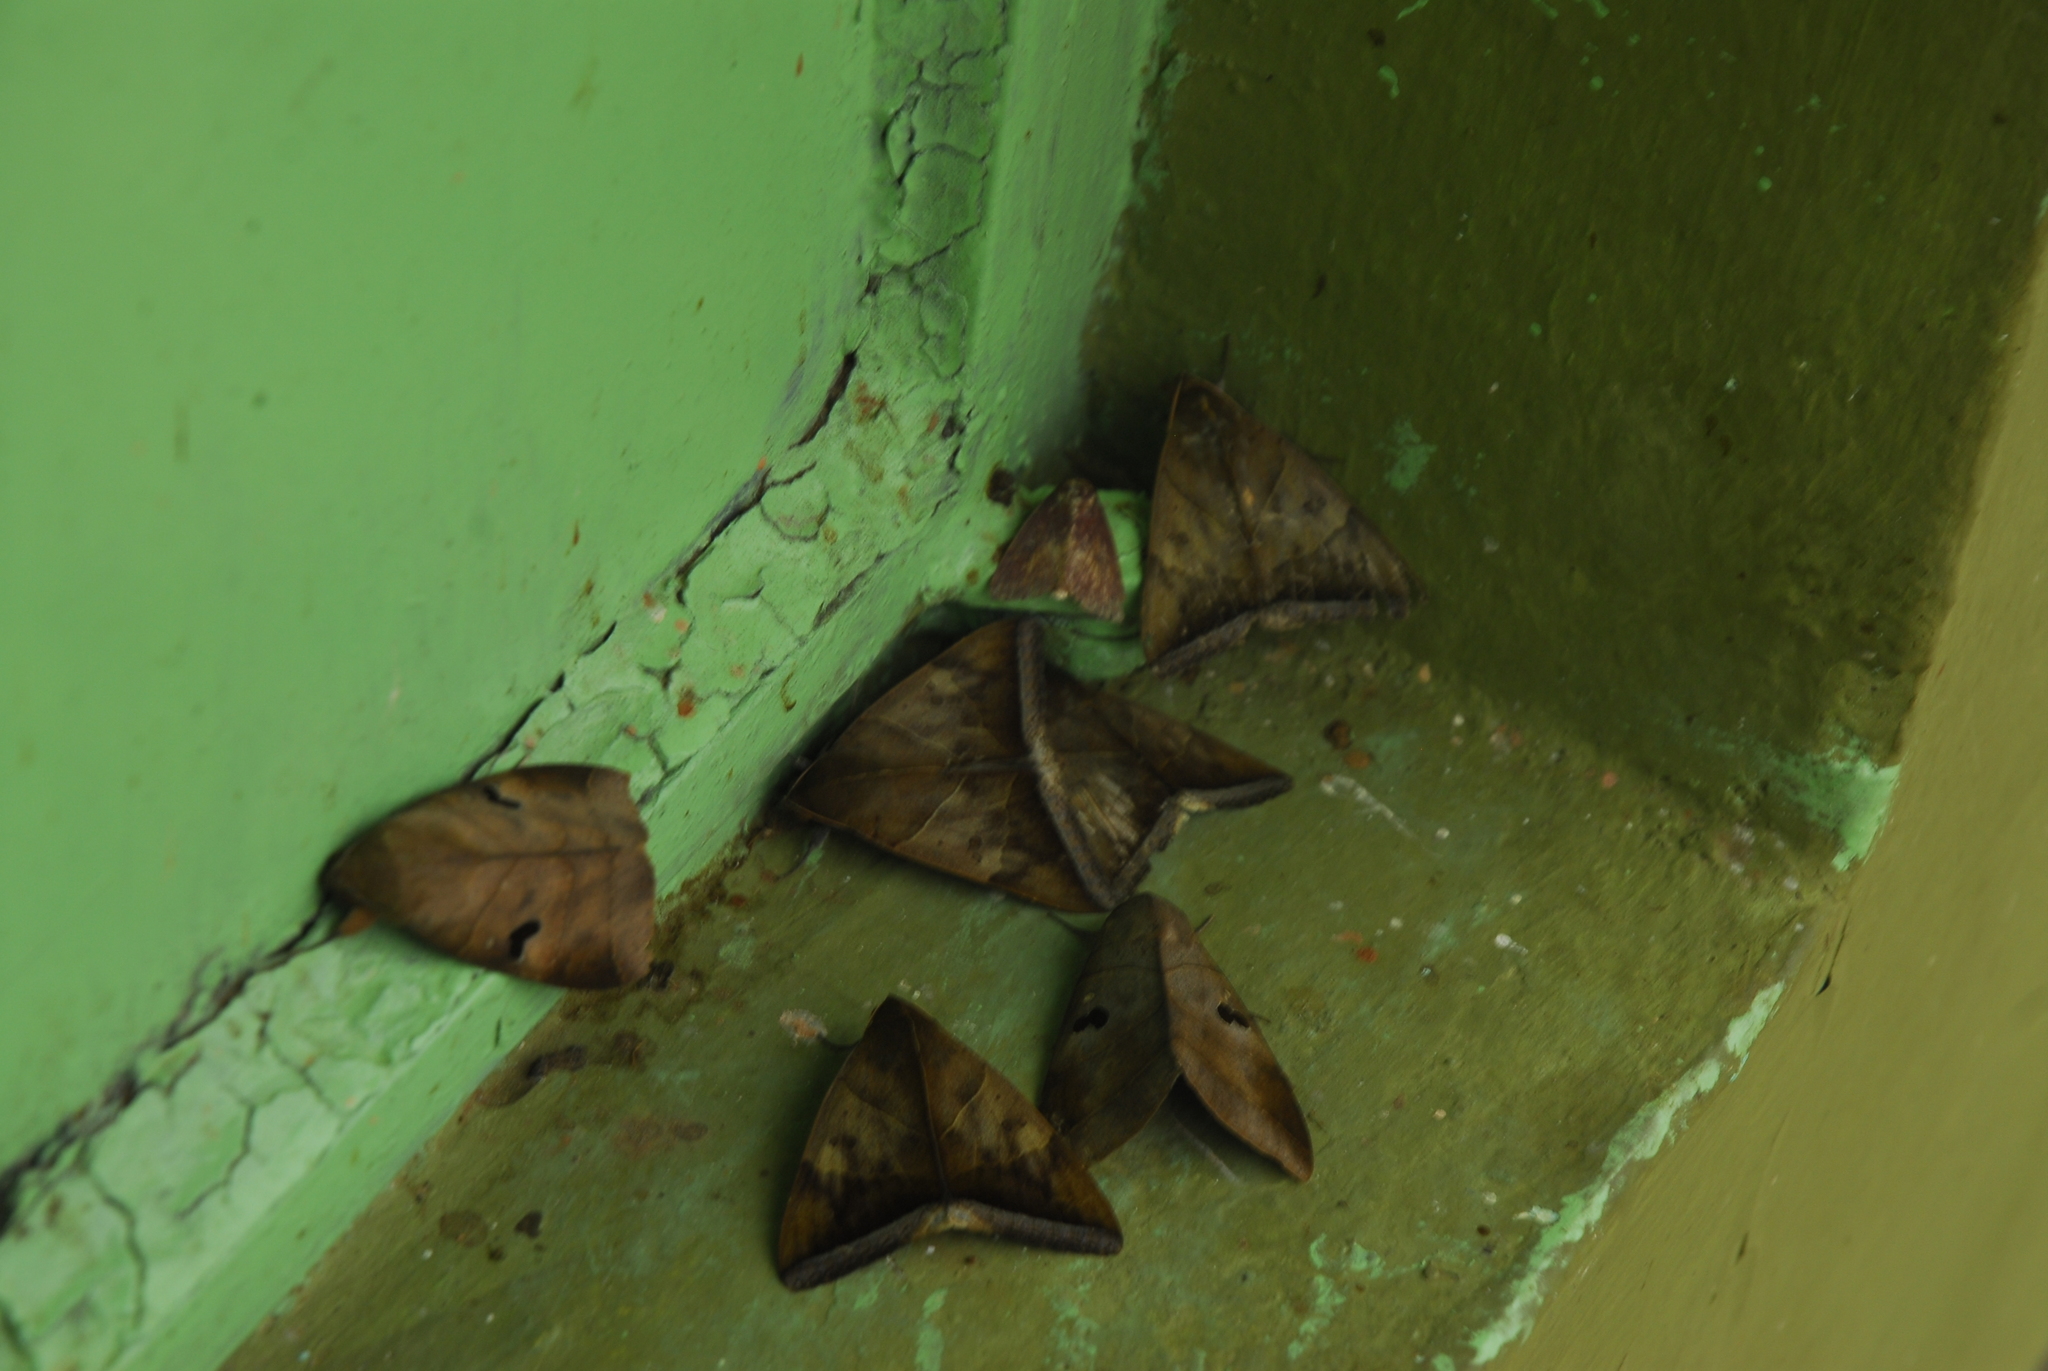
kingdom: Animalia
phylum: Arthropoda
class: Insecta
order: Lepidoptera
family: Erebidae
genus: Artena
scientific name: Artena dotata
